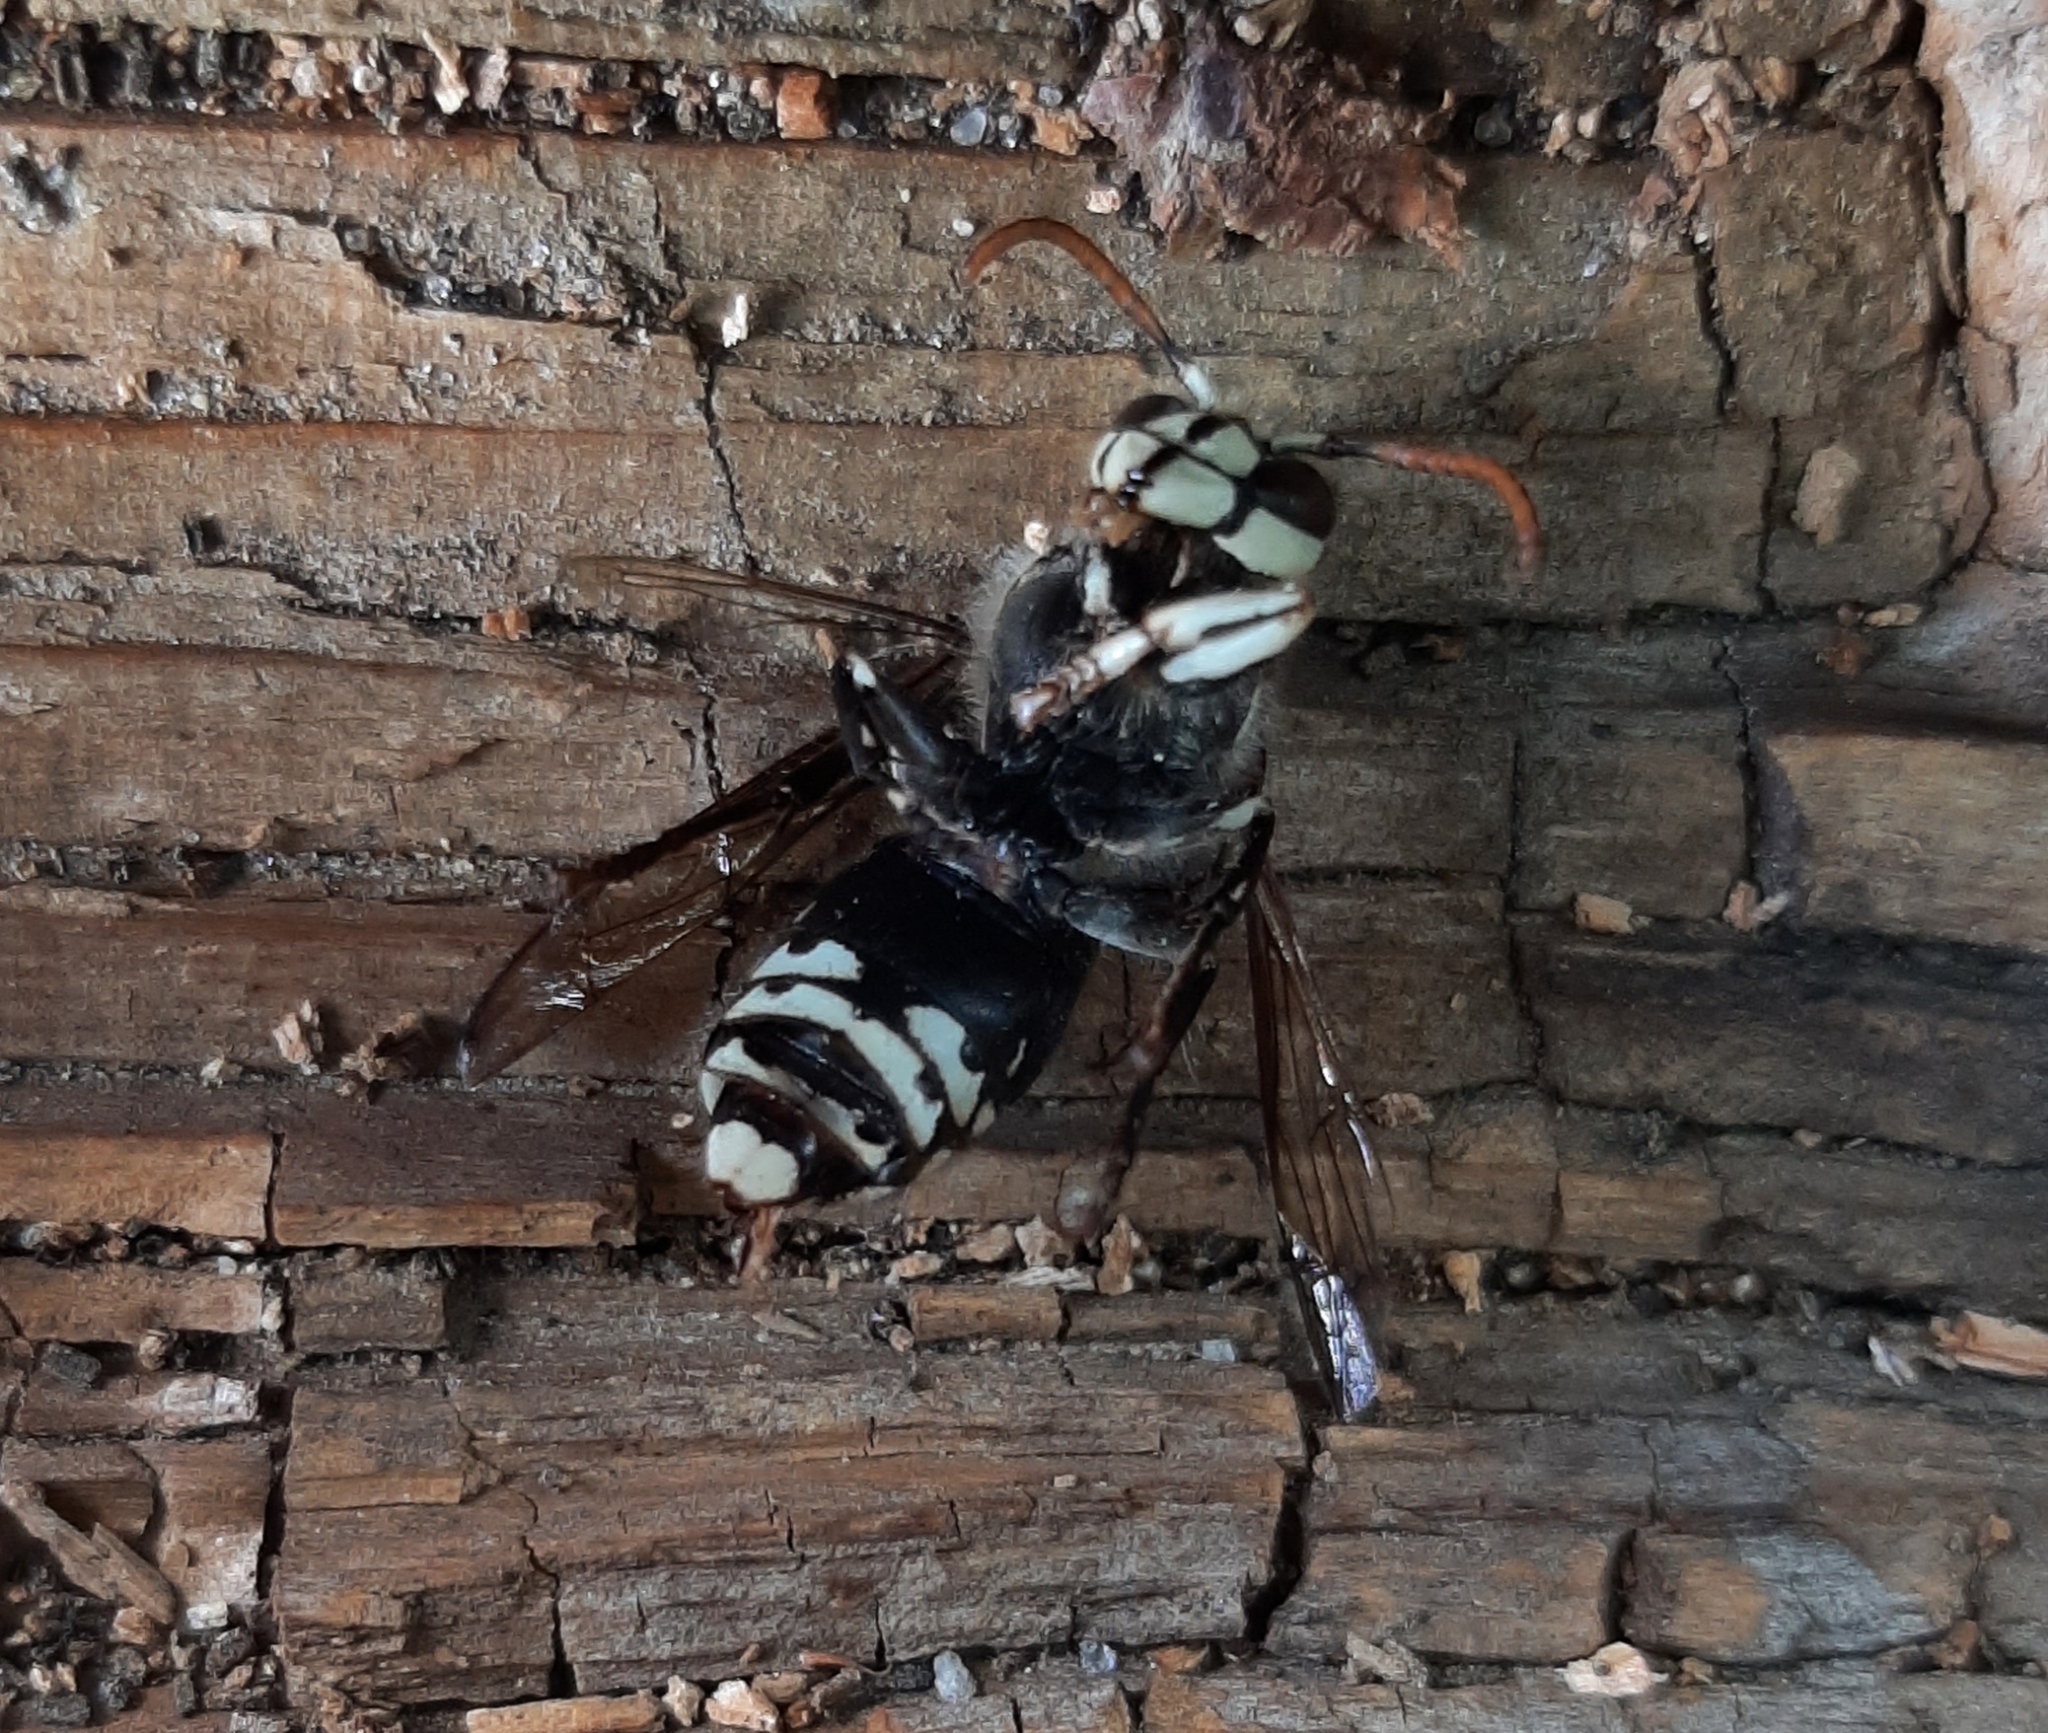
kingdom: Animalia
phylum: Arthropoda
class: Insecta
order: Hymenoptera
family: Vespidae
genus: Dolichovespula
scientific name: Dolichovespula maculata
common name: Bald-faced hornet
